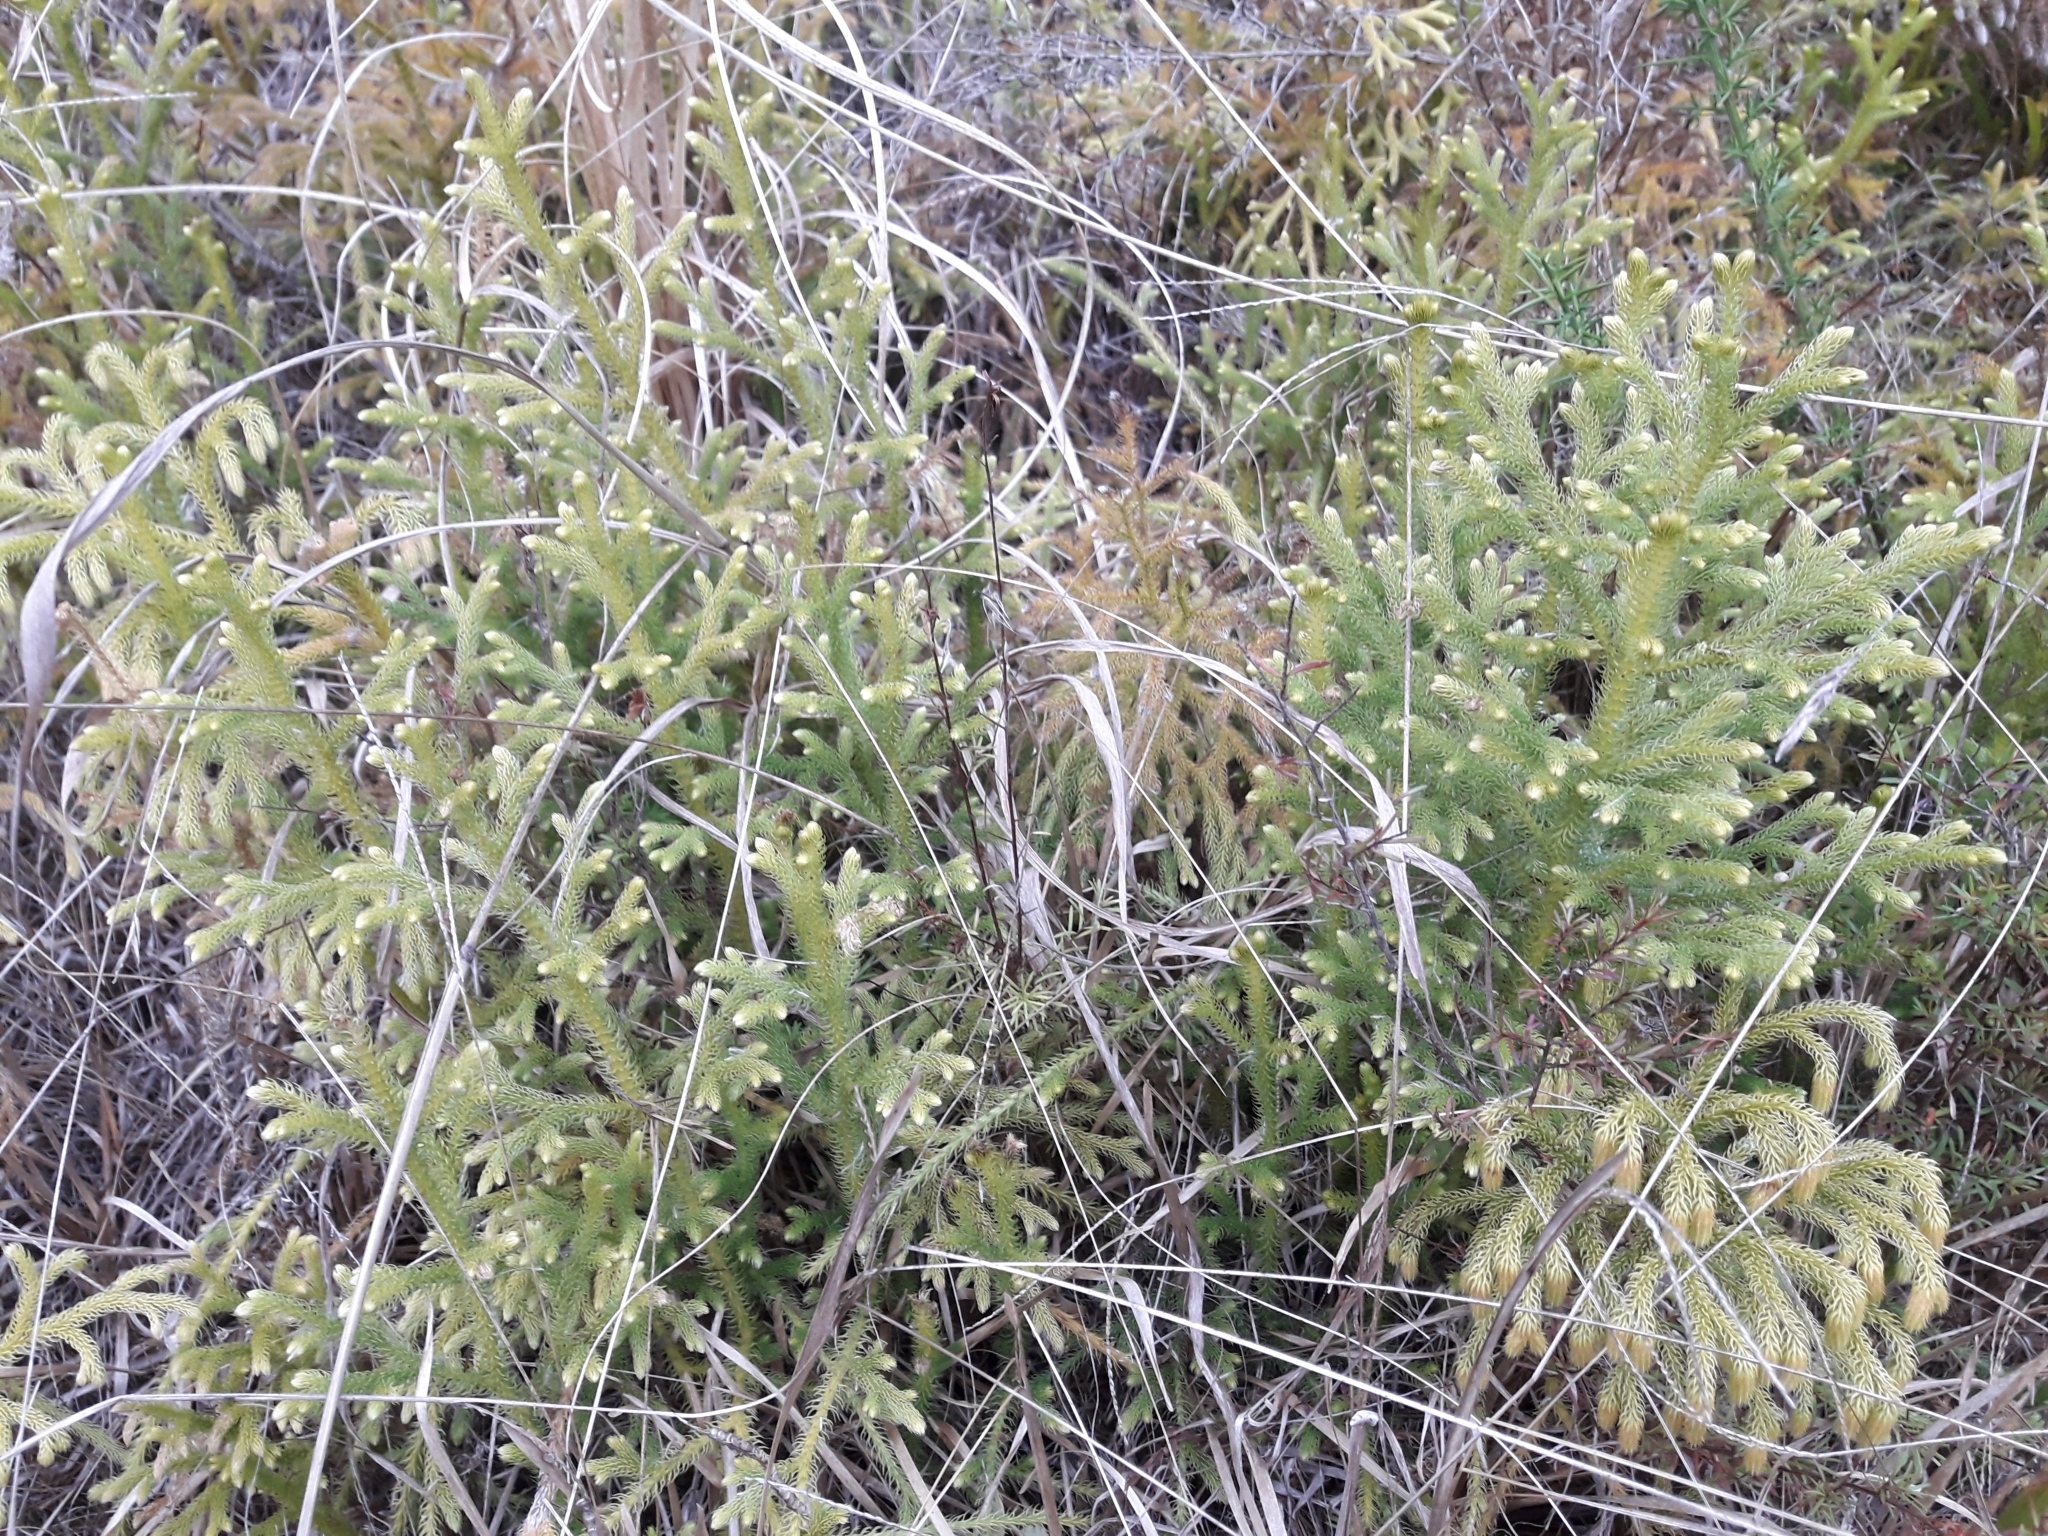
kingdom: Plantae
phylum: Tracheophyta
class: Lycopodiopsida
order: Lycopodiales
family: Lycopodiaceae
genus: Palhinhaea
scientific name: Palhinhaea cernua
